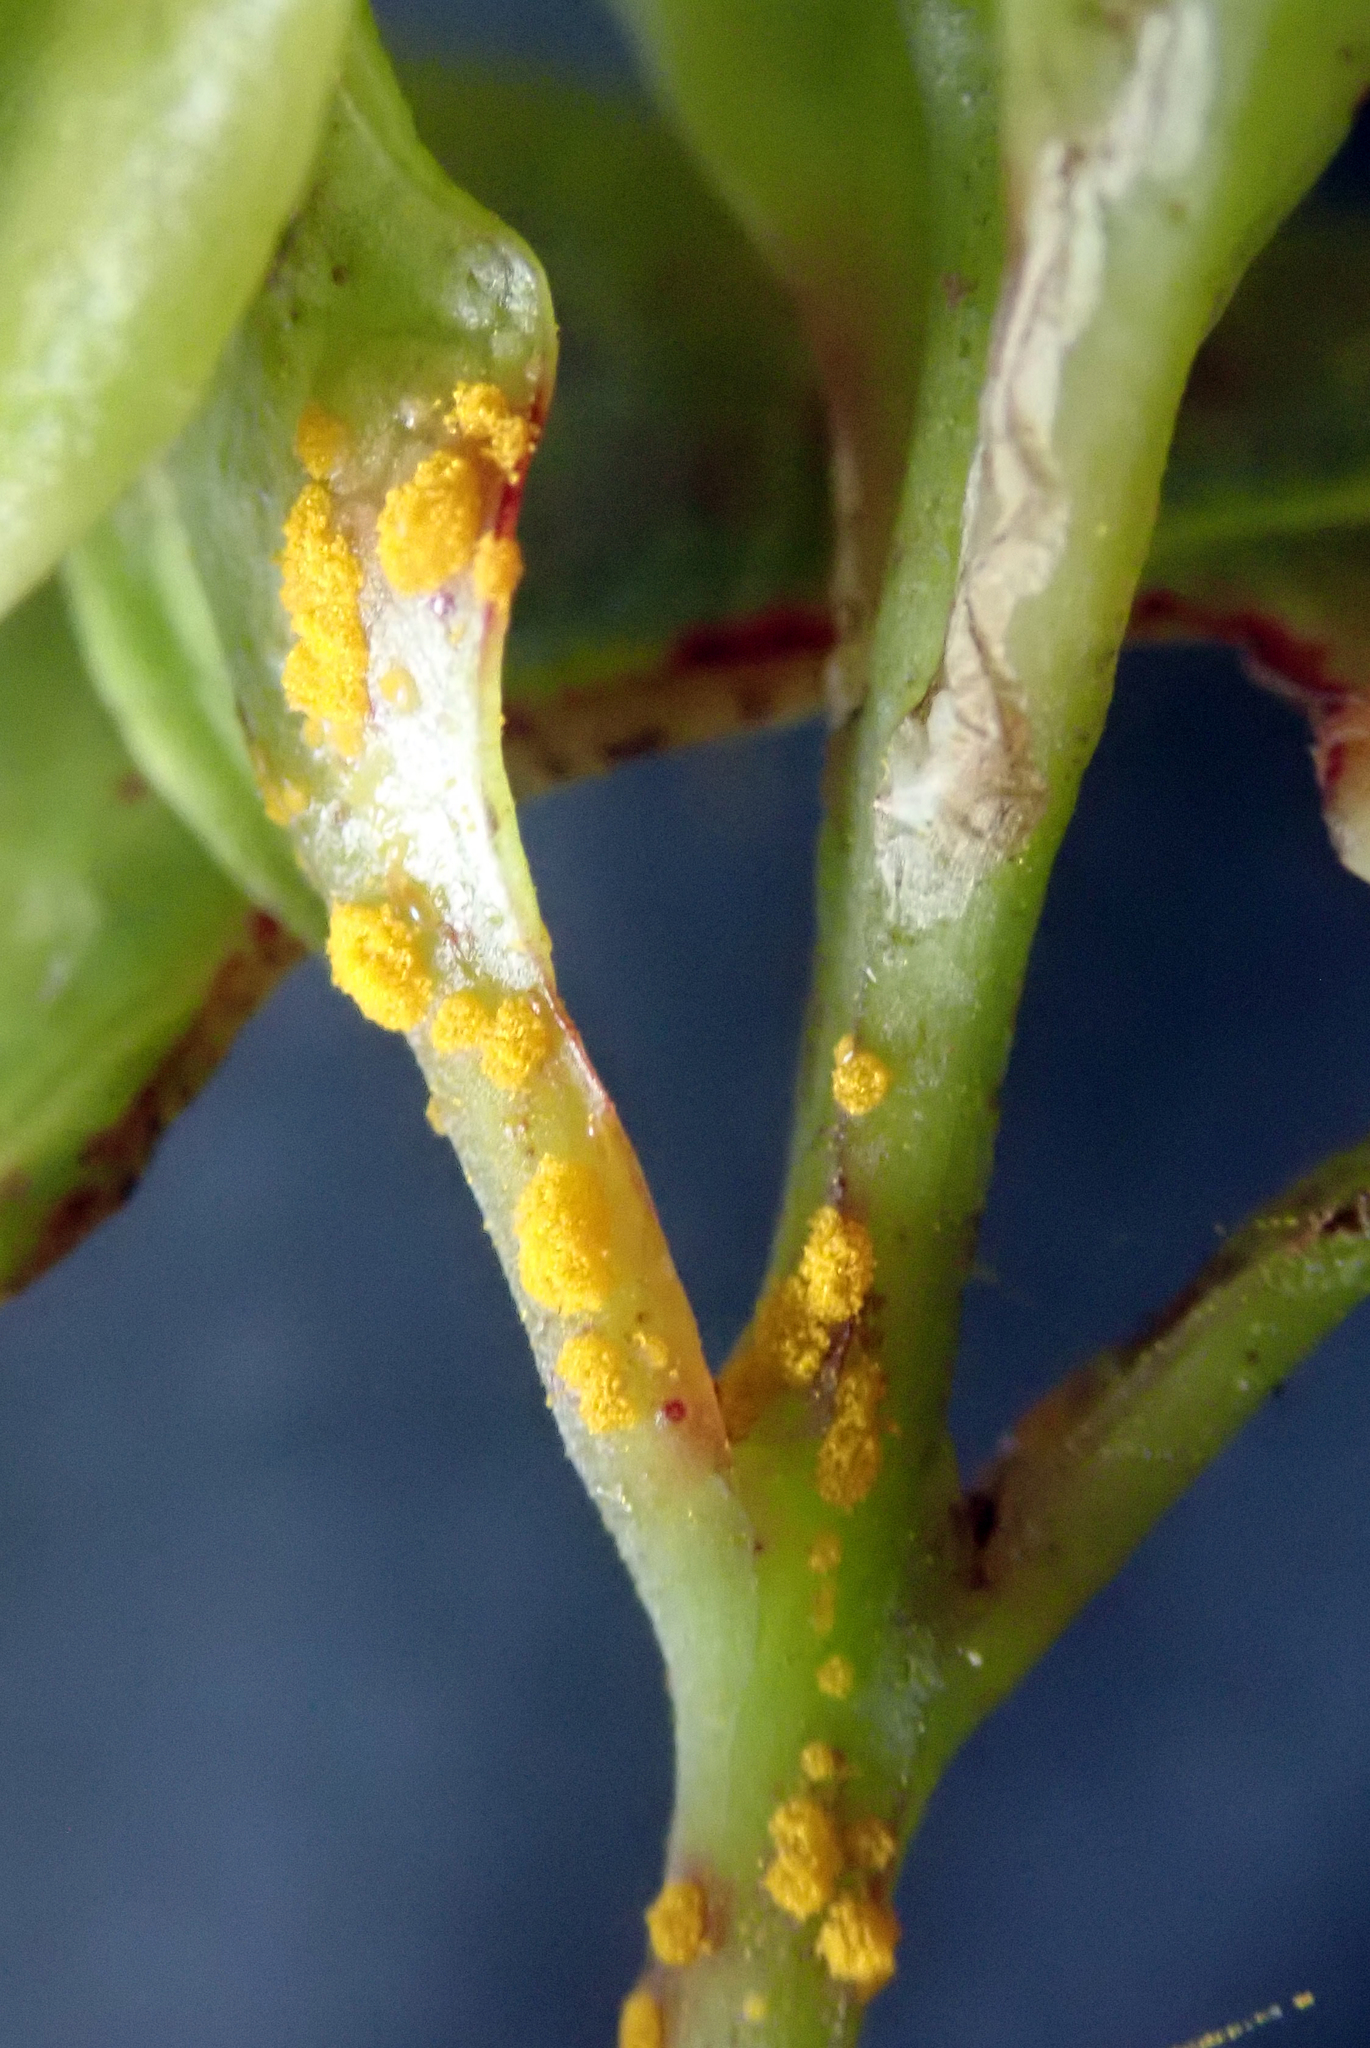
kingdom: Fungi
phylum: Basidiomycota
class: Pucciniomycetes
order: Pucciniales
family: Sphaerophragmiaceae
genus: Austropuccinia
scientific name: Austropuccinia psidii
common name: Myrtle rust
